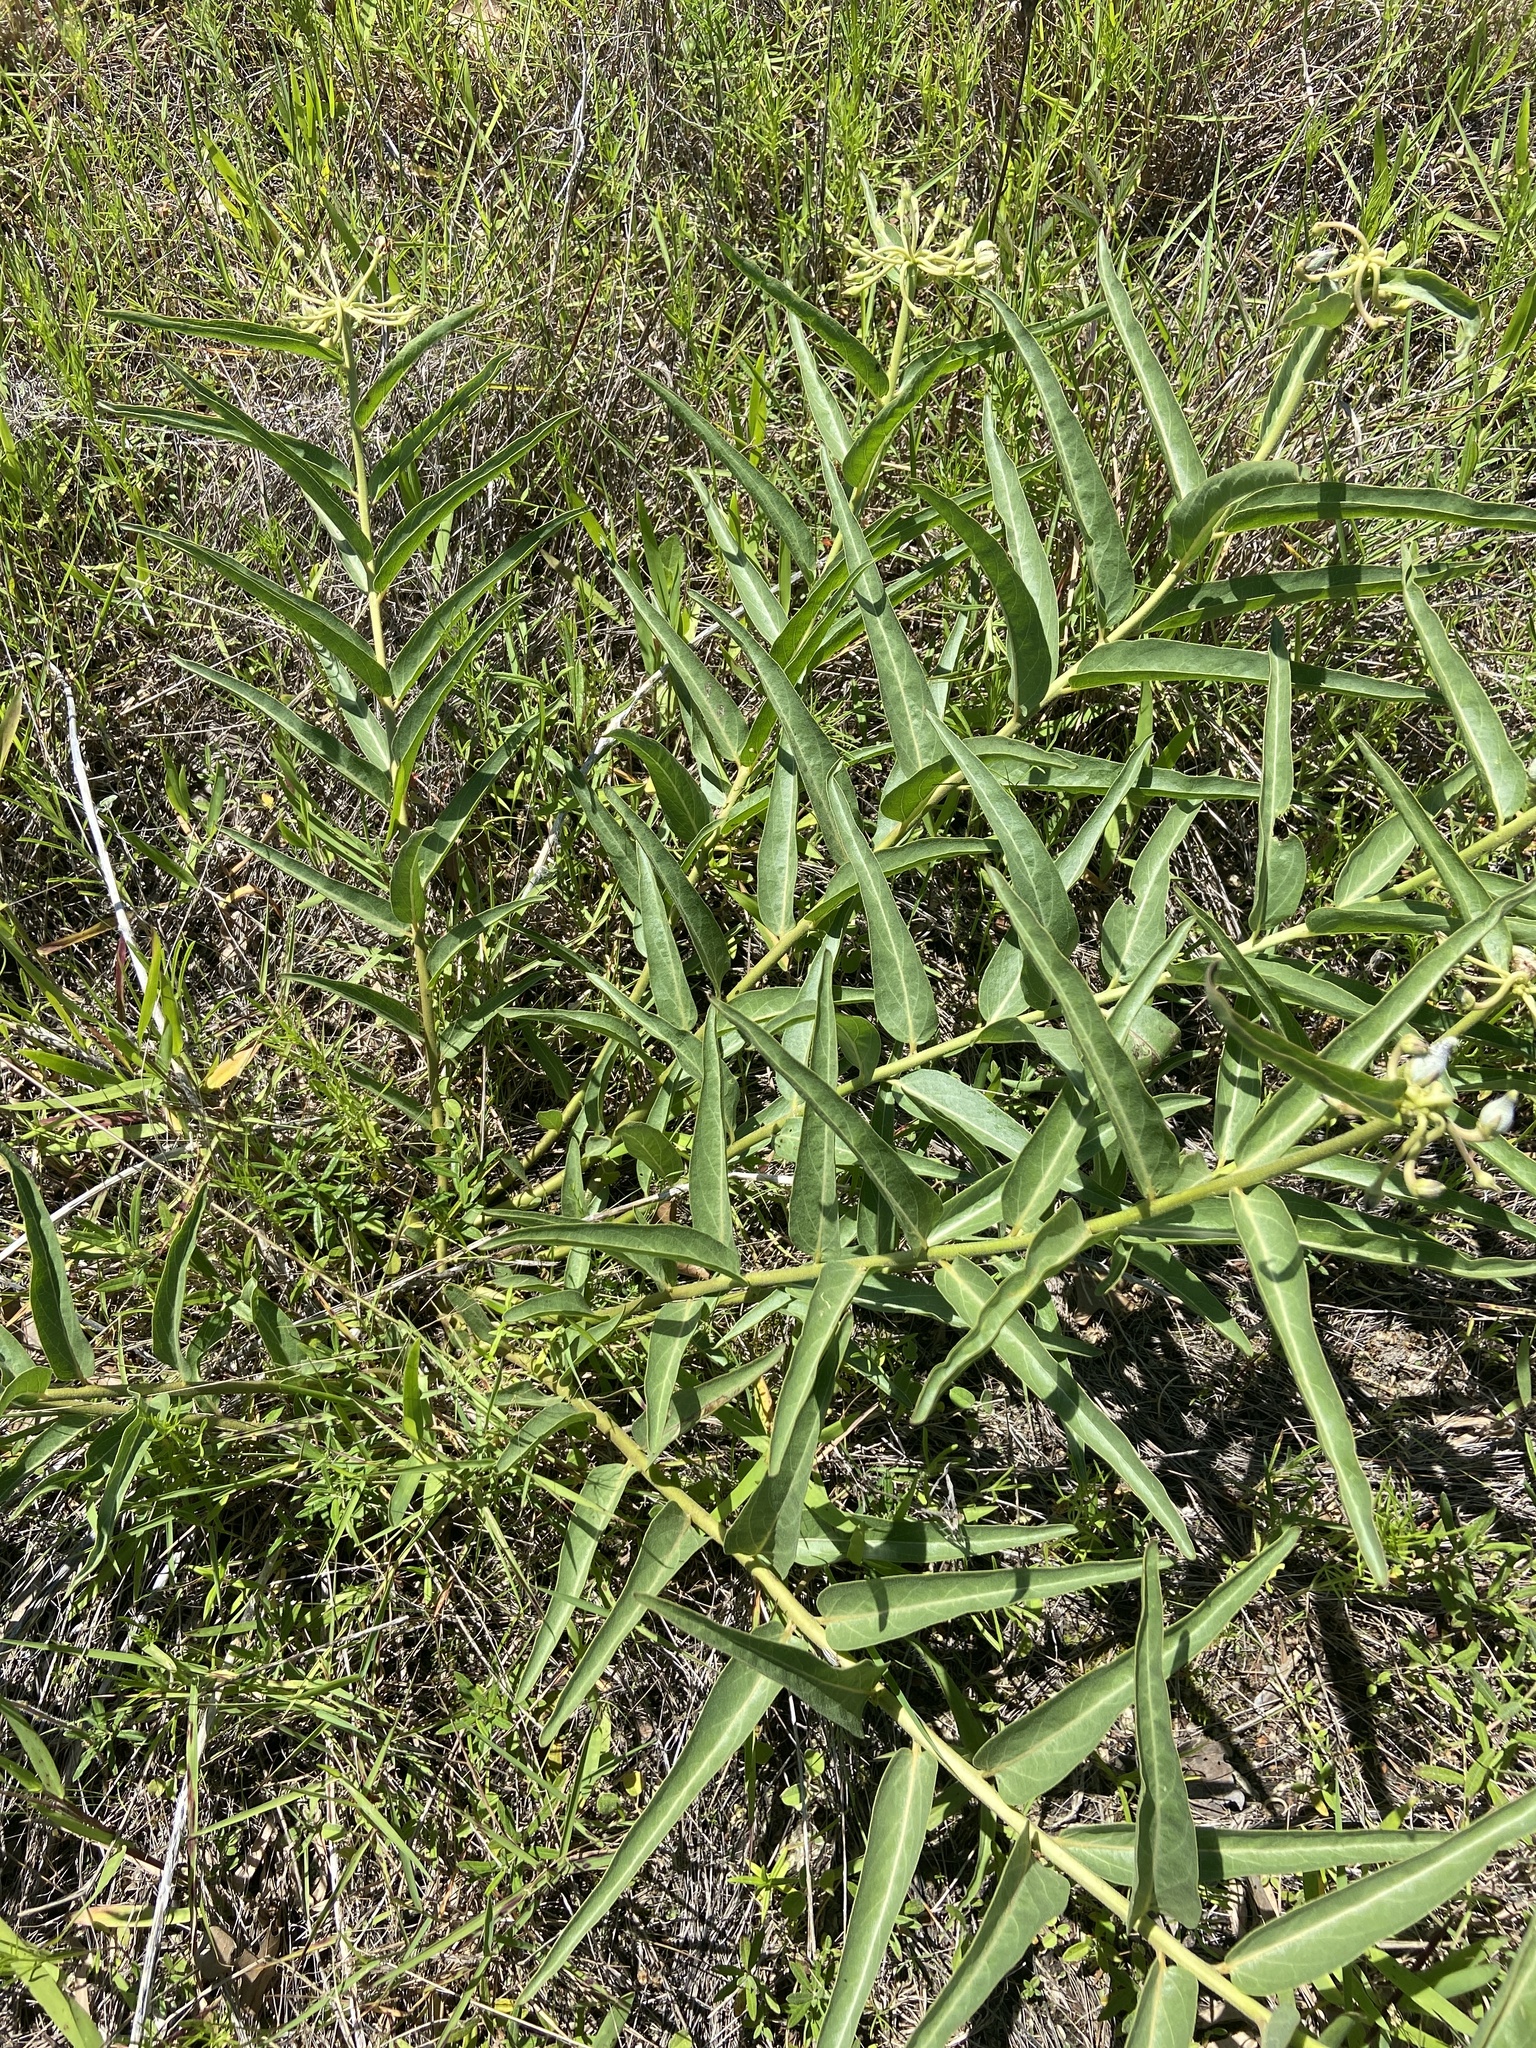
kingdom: Plantae
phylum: Tracheophyta
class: Magnoliopsida
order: Gentianales
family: Apocynaceae
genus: Asclepias
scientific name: Asclepias asperula
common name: Antelope horns
